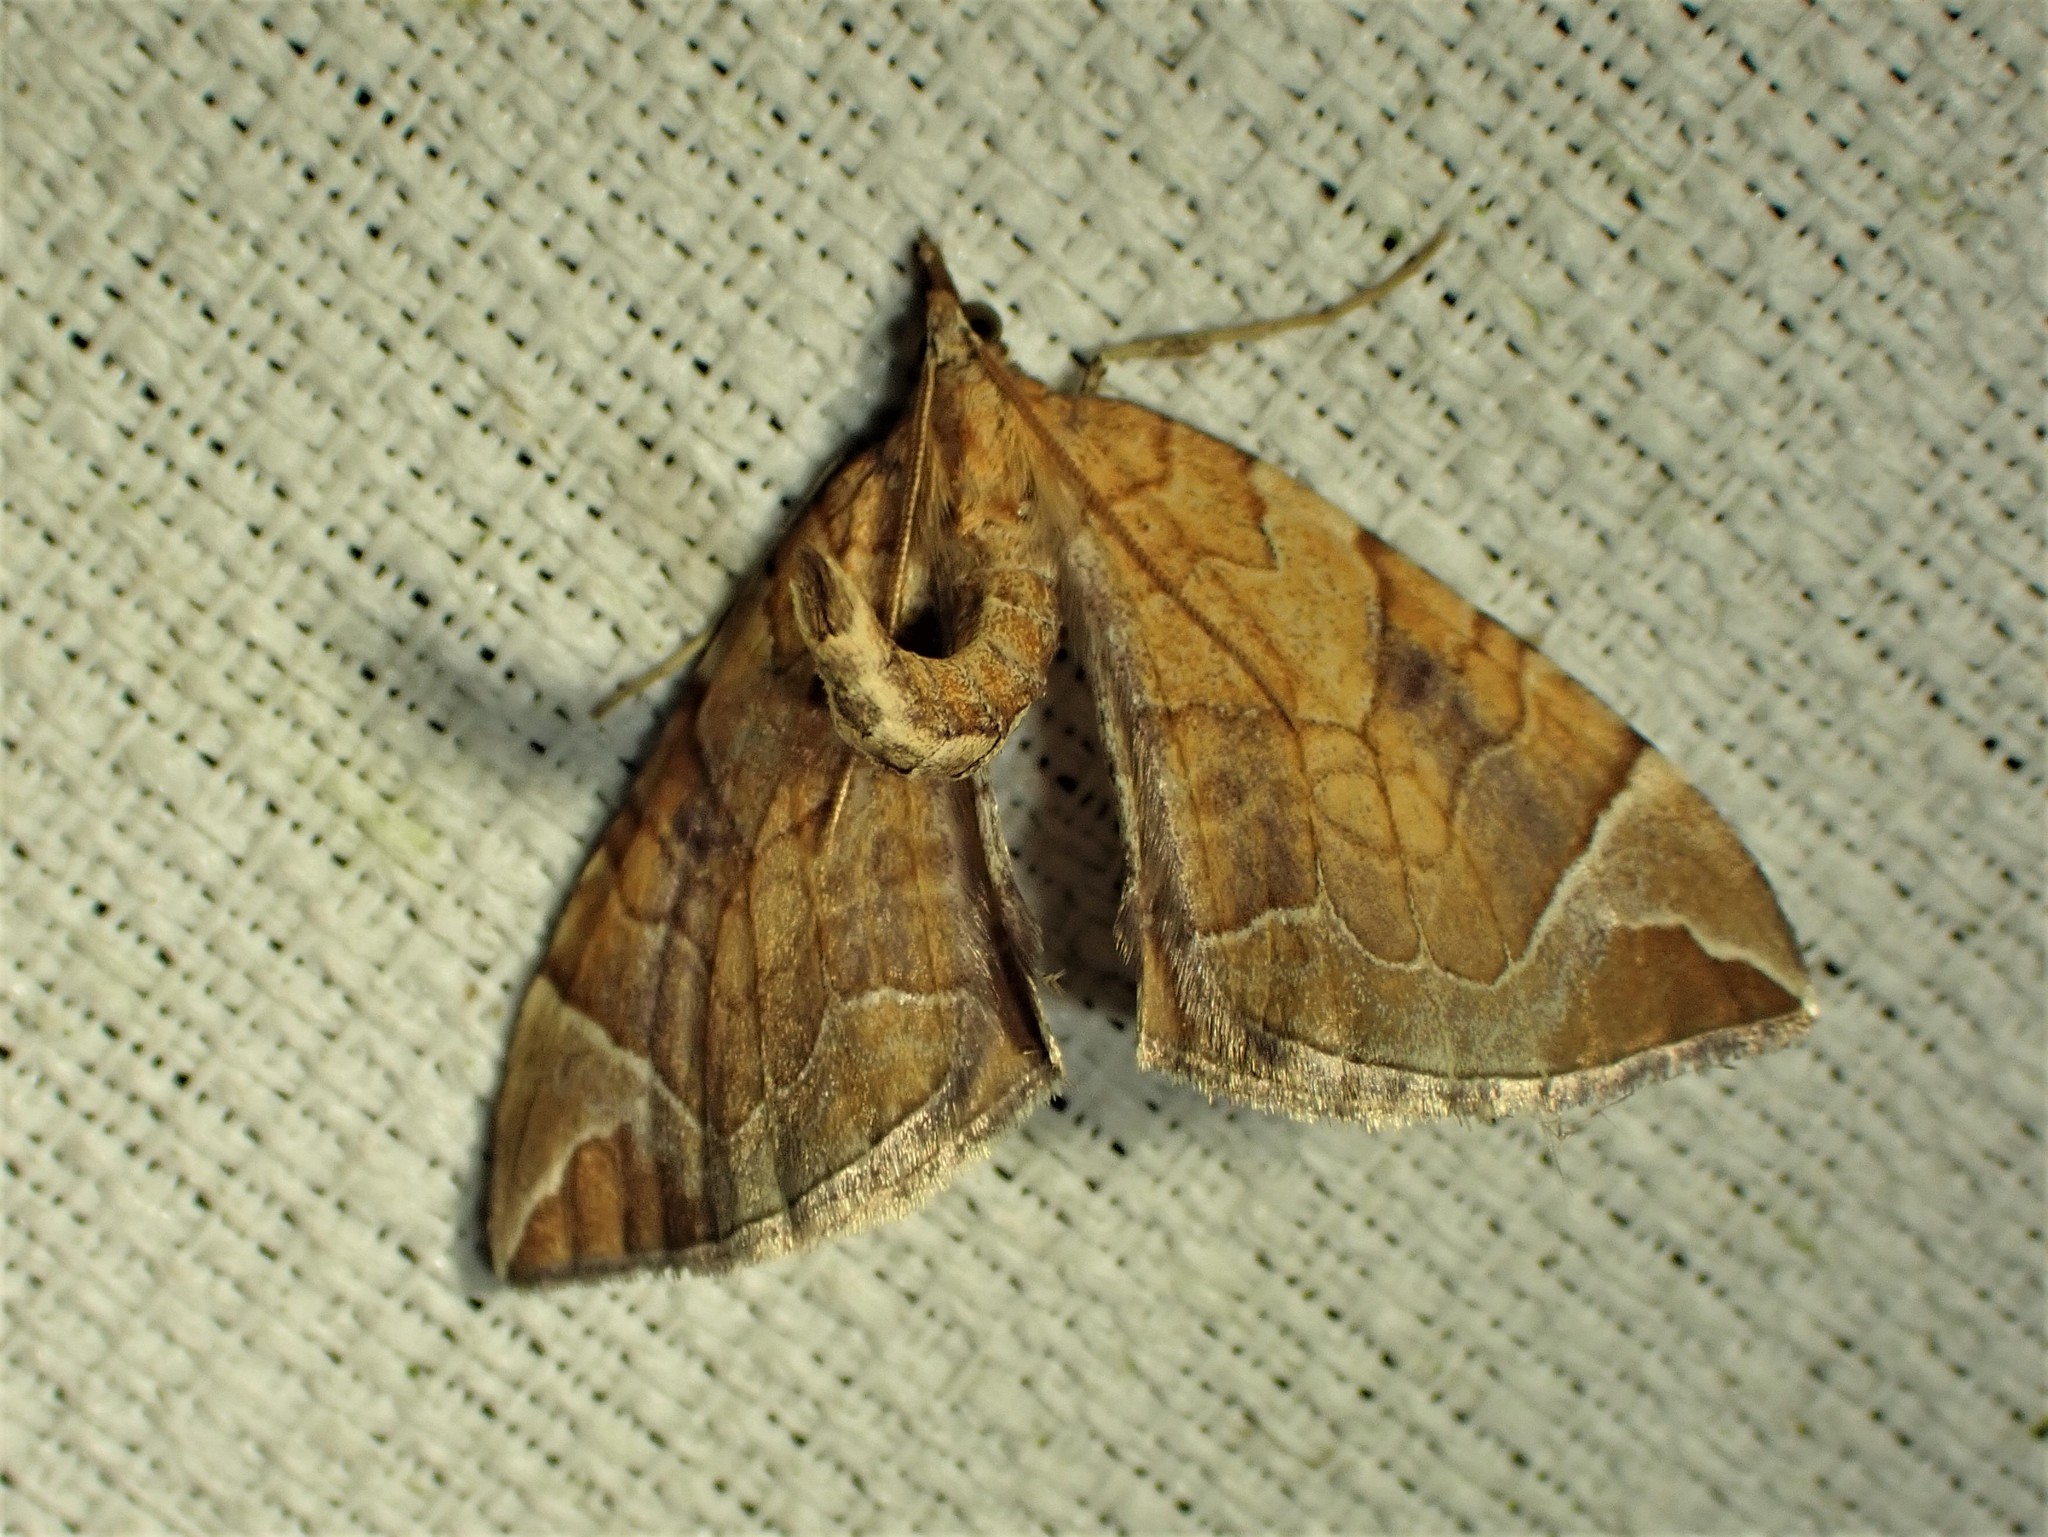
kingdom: Animalia
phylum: Arthropoda
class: Insecta
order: Lepidoptera
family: Geometridae
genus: Eulithis
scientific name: Eulithis testata
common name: Chevron
